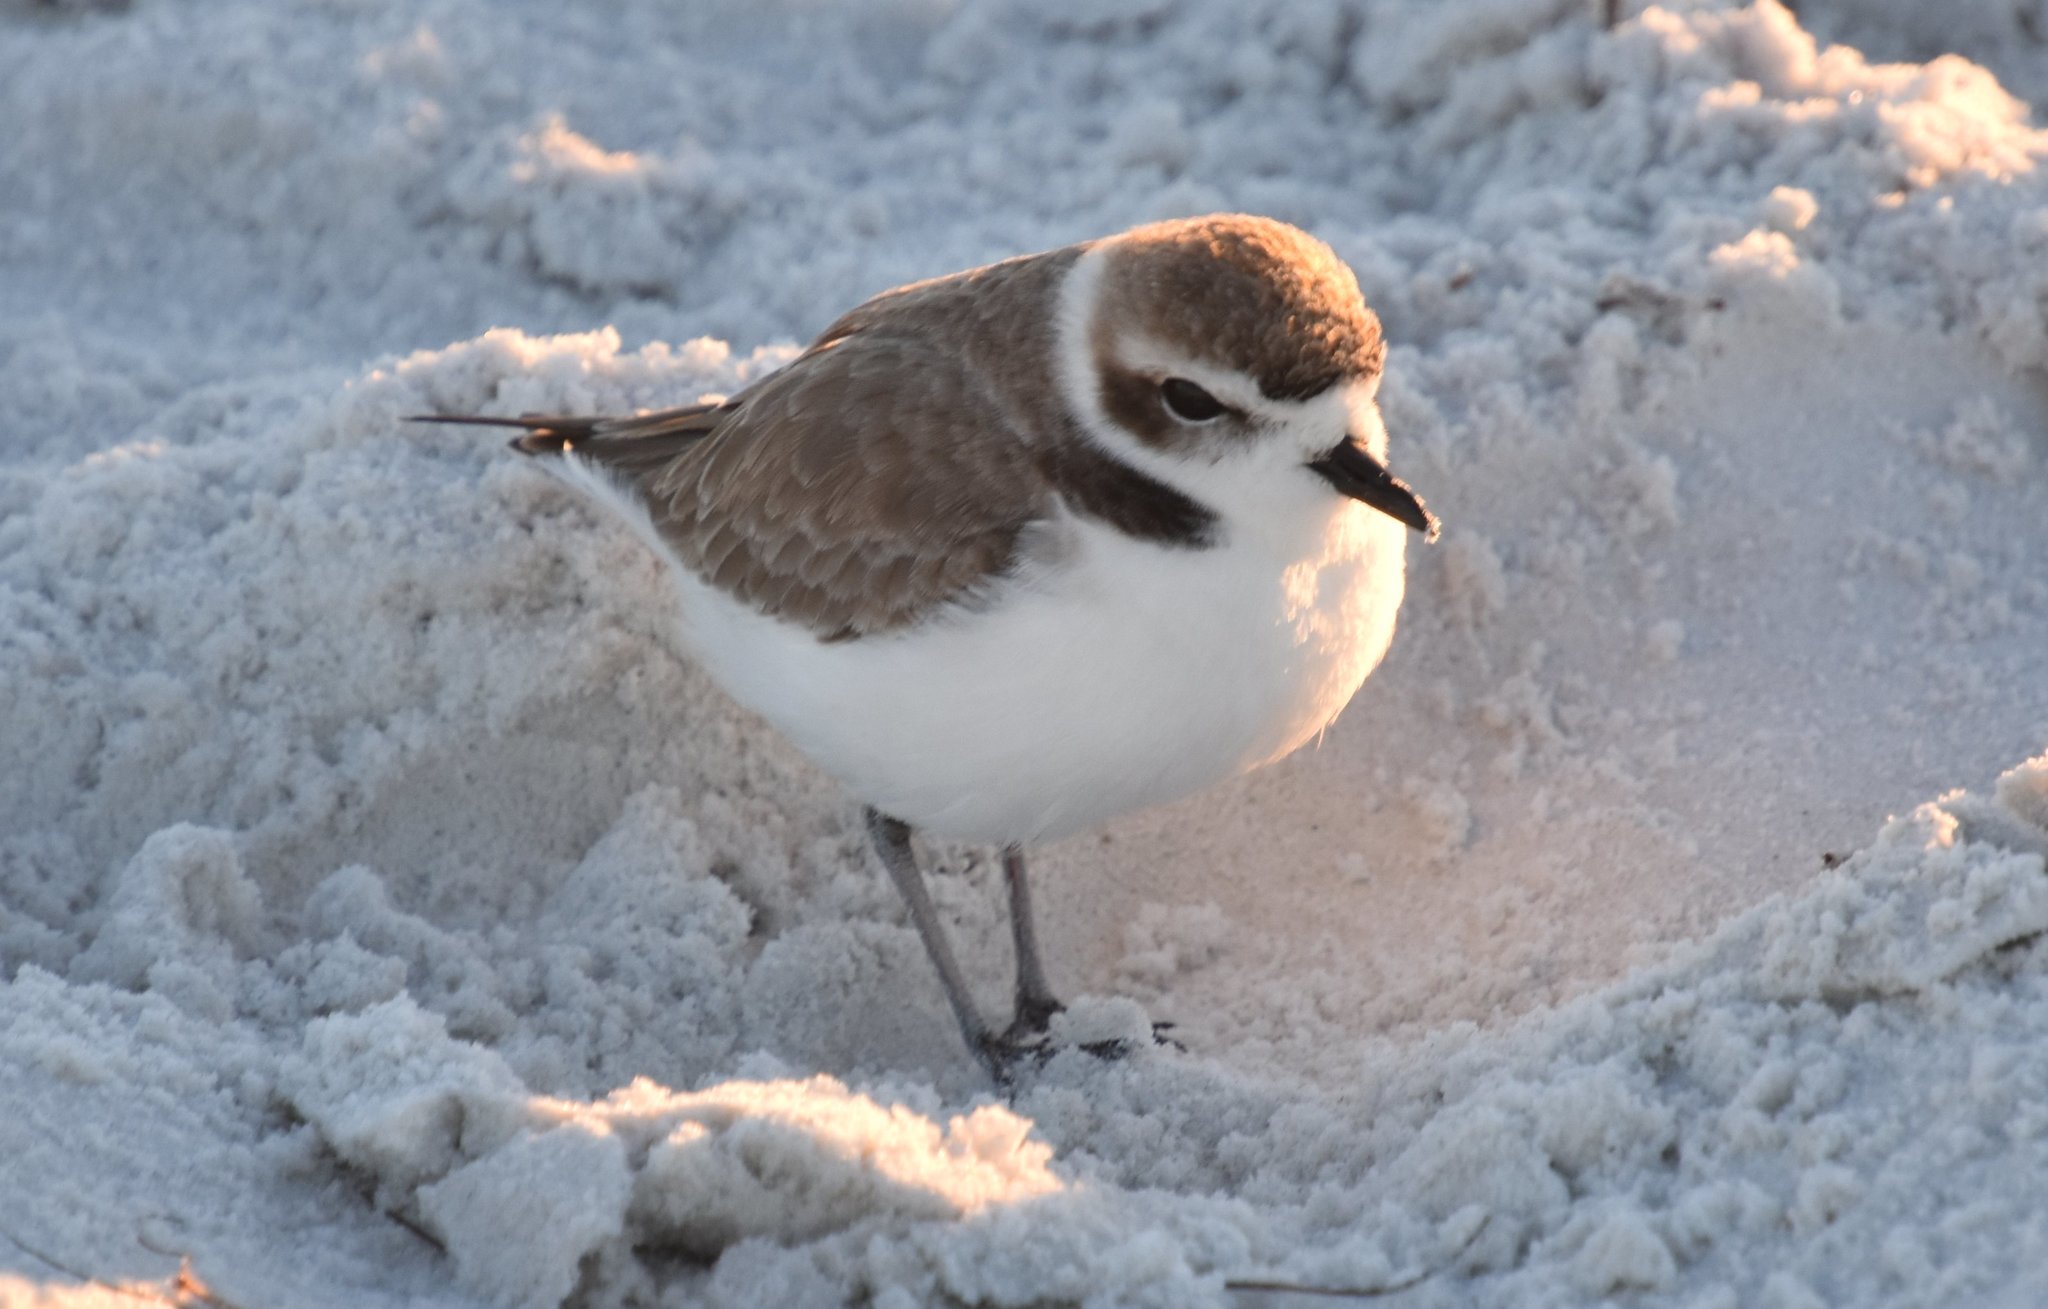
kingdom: Animalia
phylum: Chordata
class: Aves
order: Charadriiformes
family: Charadriidae
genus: Anarhynchus
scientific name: Anarhynchus
